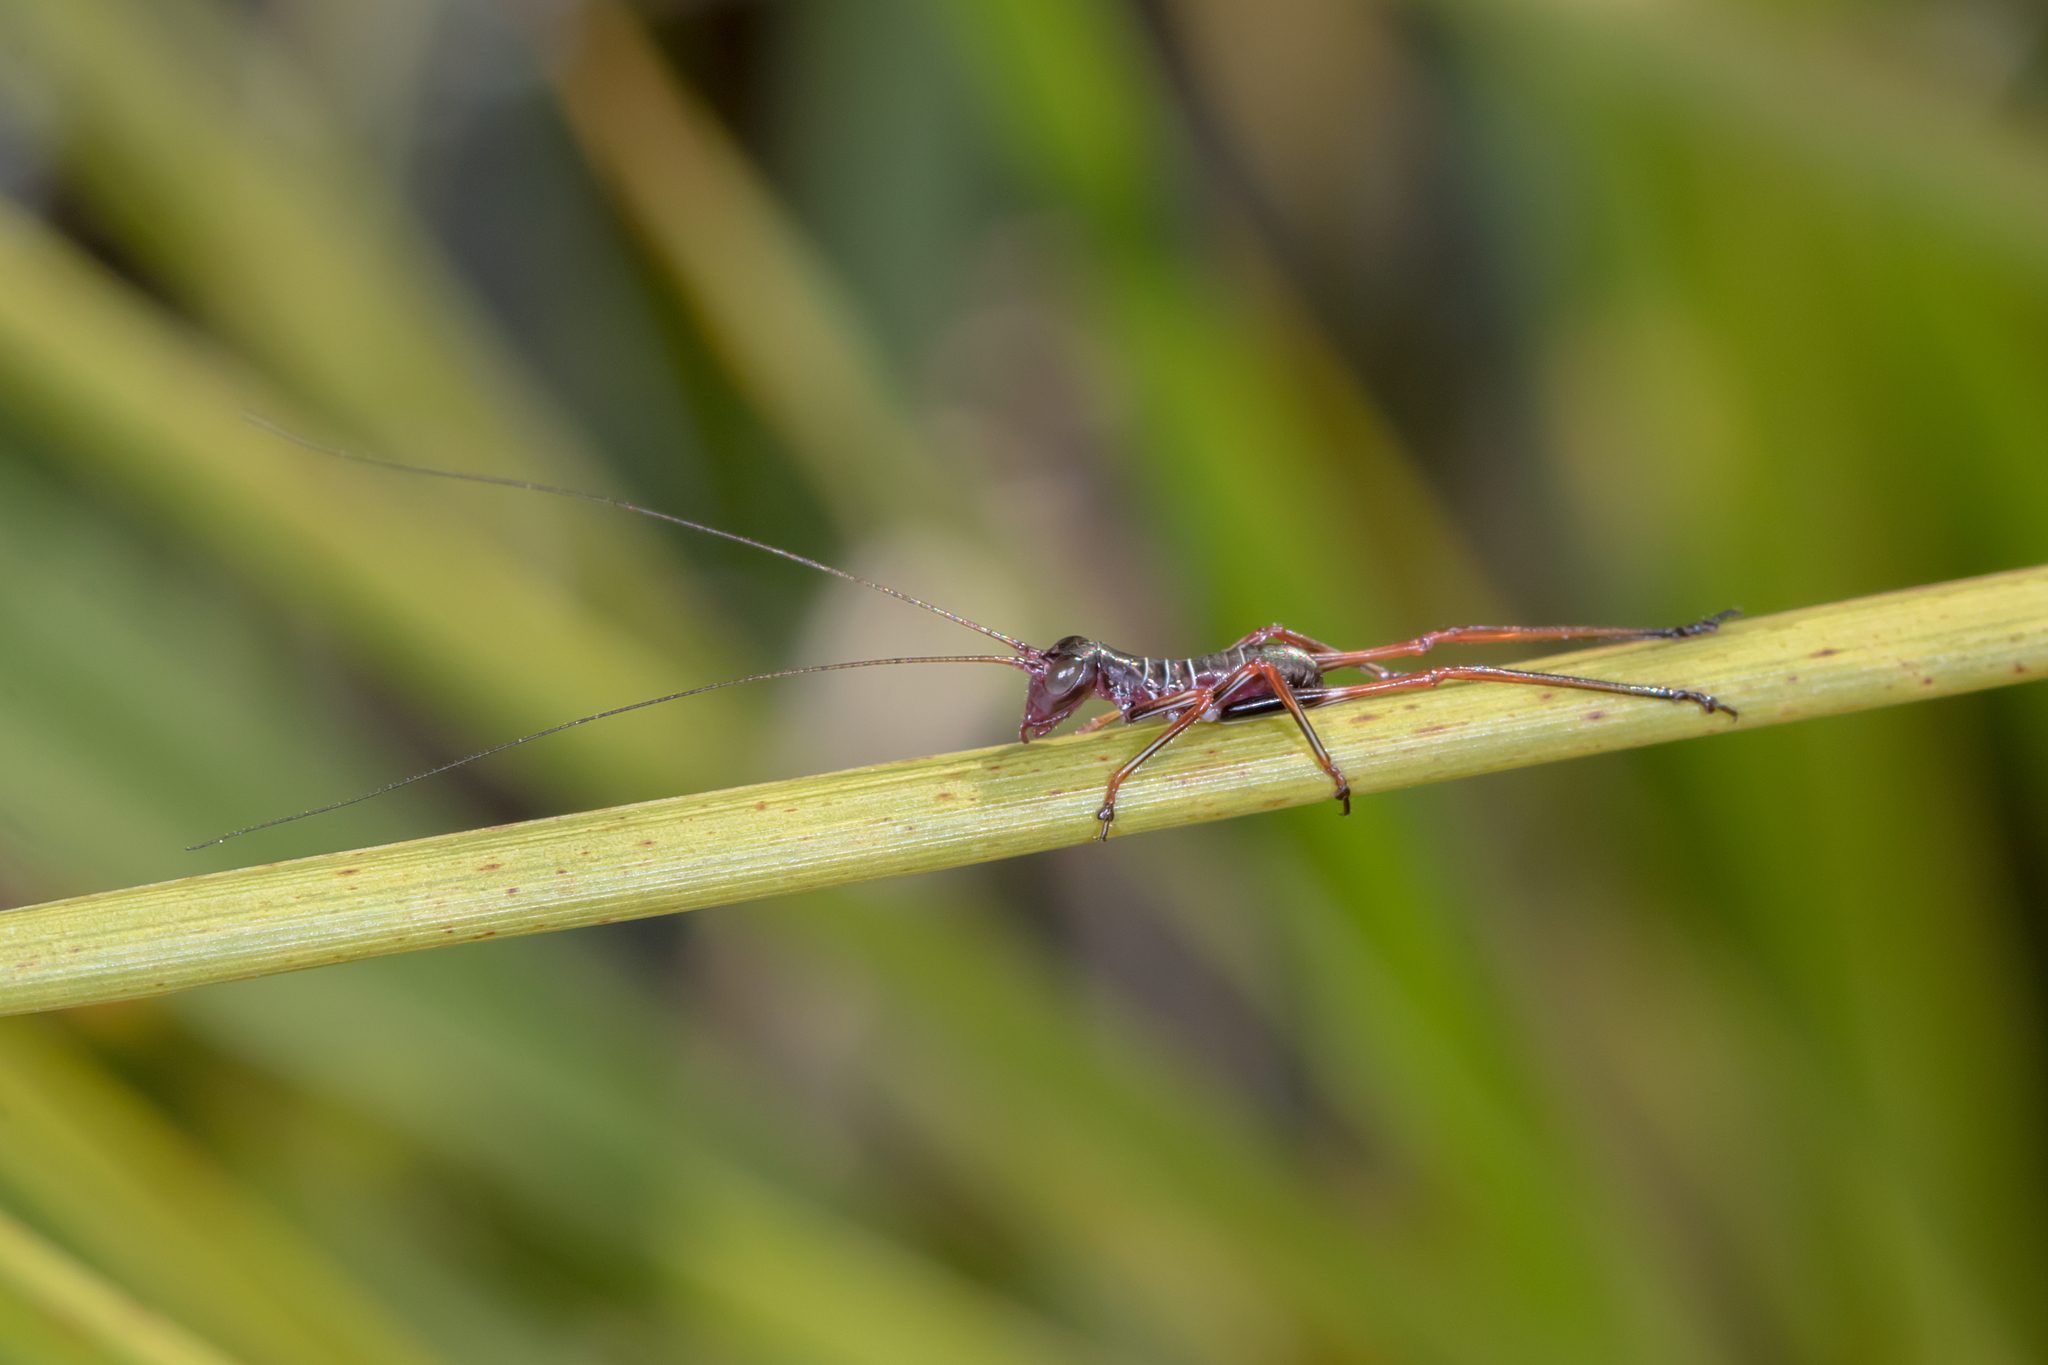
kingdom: Animalia
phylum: Arthropoda
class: Insecta
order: Orthoptera
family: Tettigoniidae
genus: Torbia
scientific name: Torbia viridissima
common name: Non-predaceous gum leaf katydid
